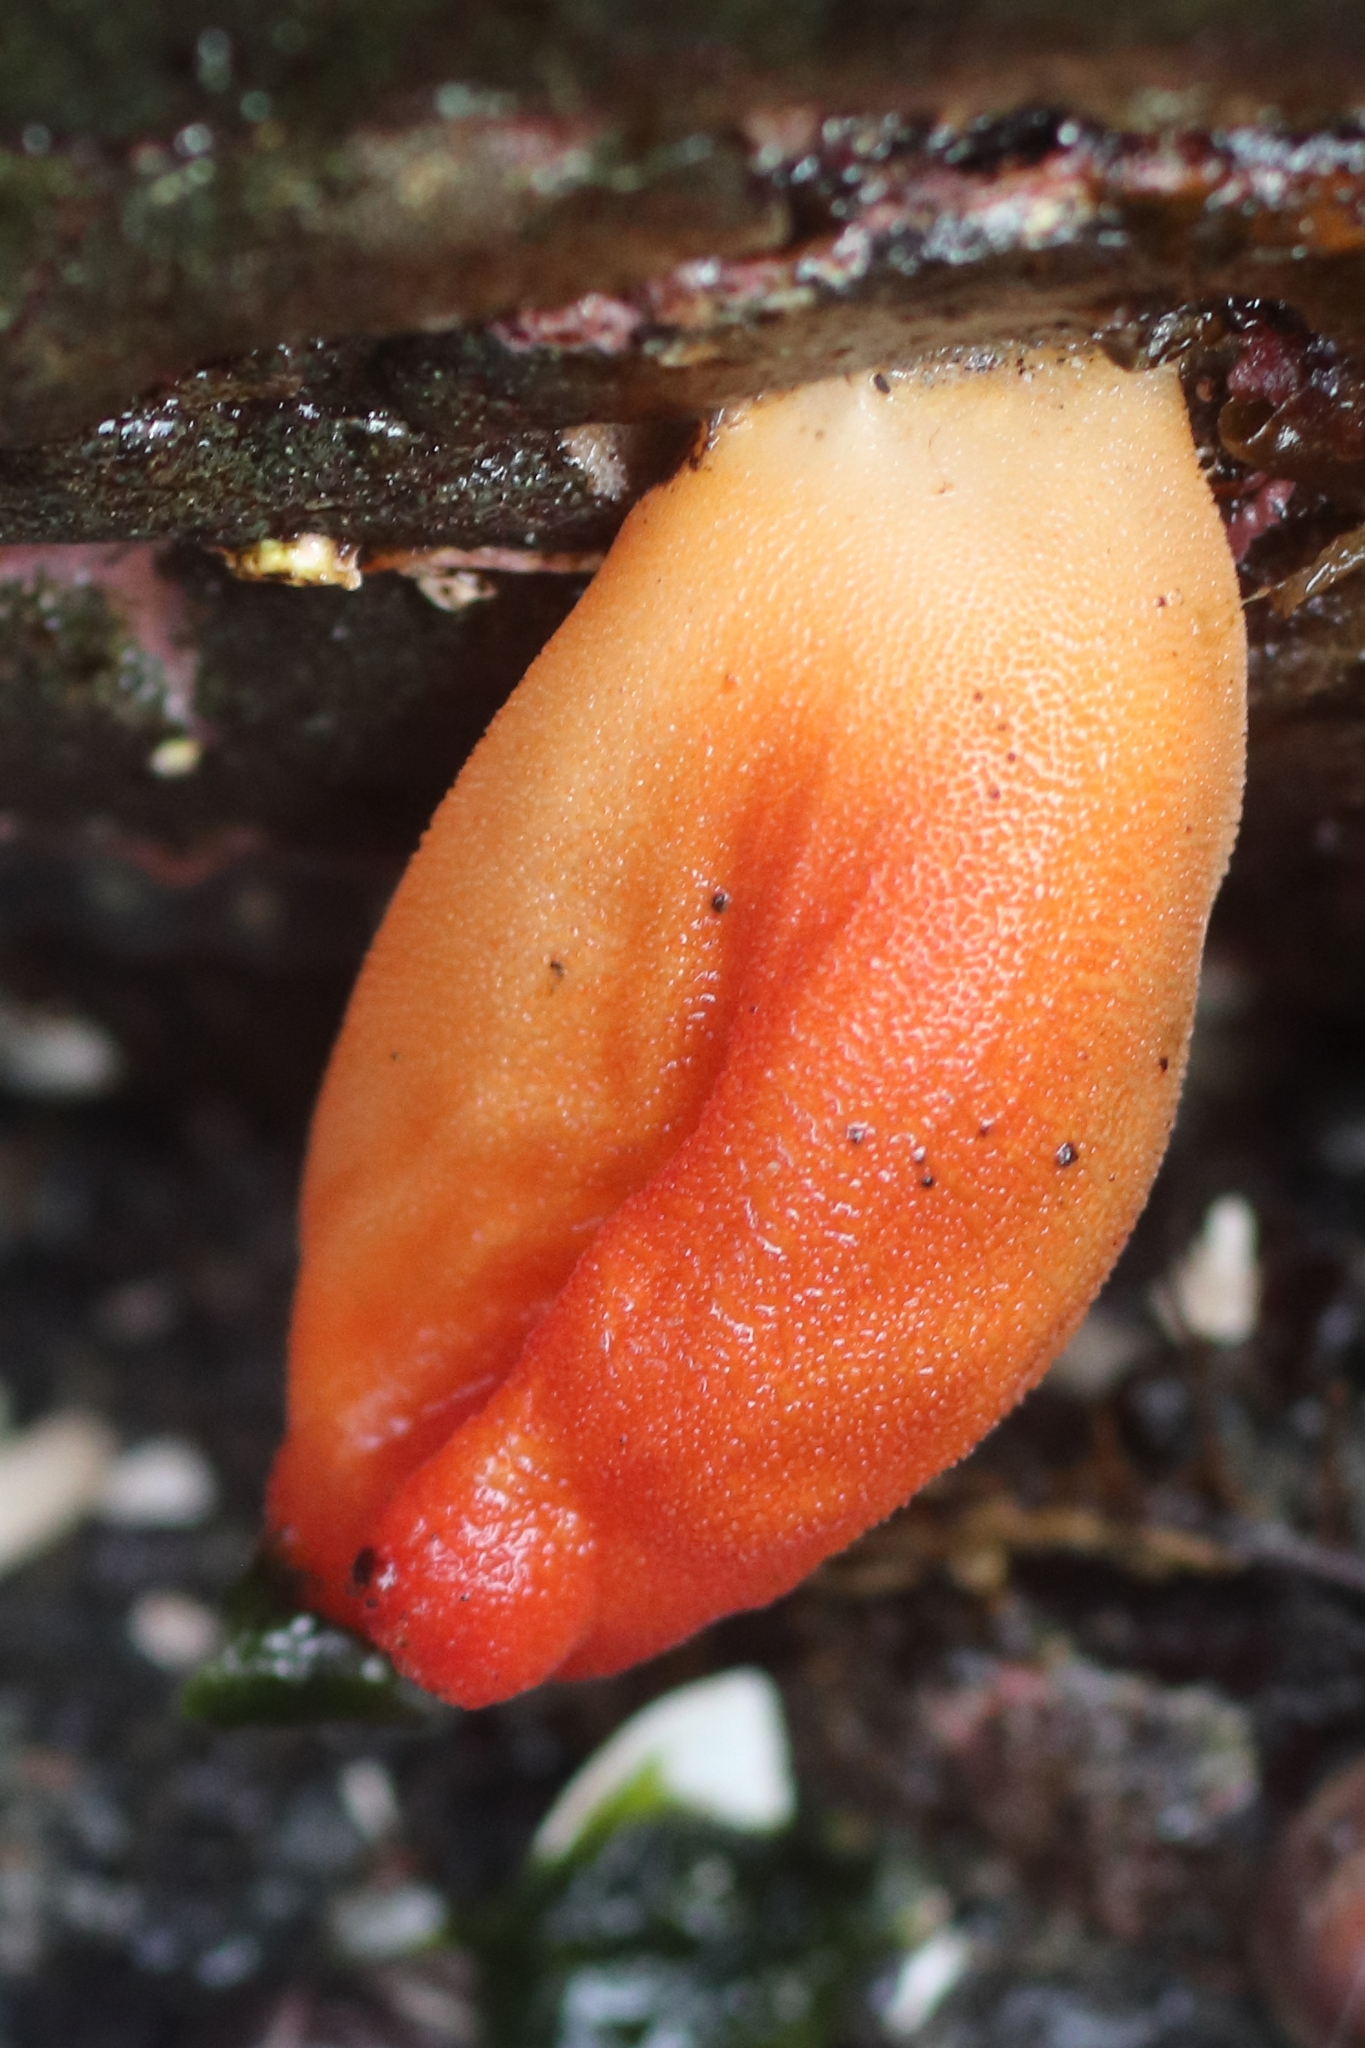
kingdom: Animalia
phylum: Chordata
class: Ascidiacea
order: Stolidobranchia
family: Pyuridae
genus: Halocynthia
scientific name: Halocynthia aurantium
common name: Sea peach
